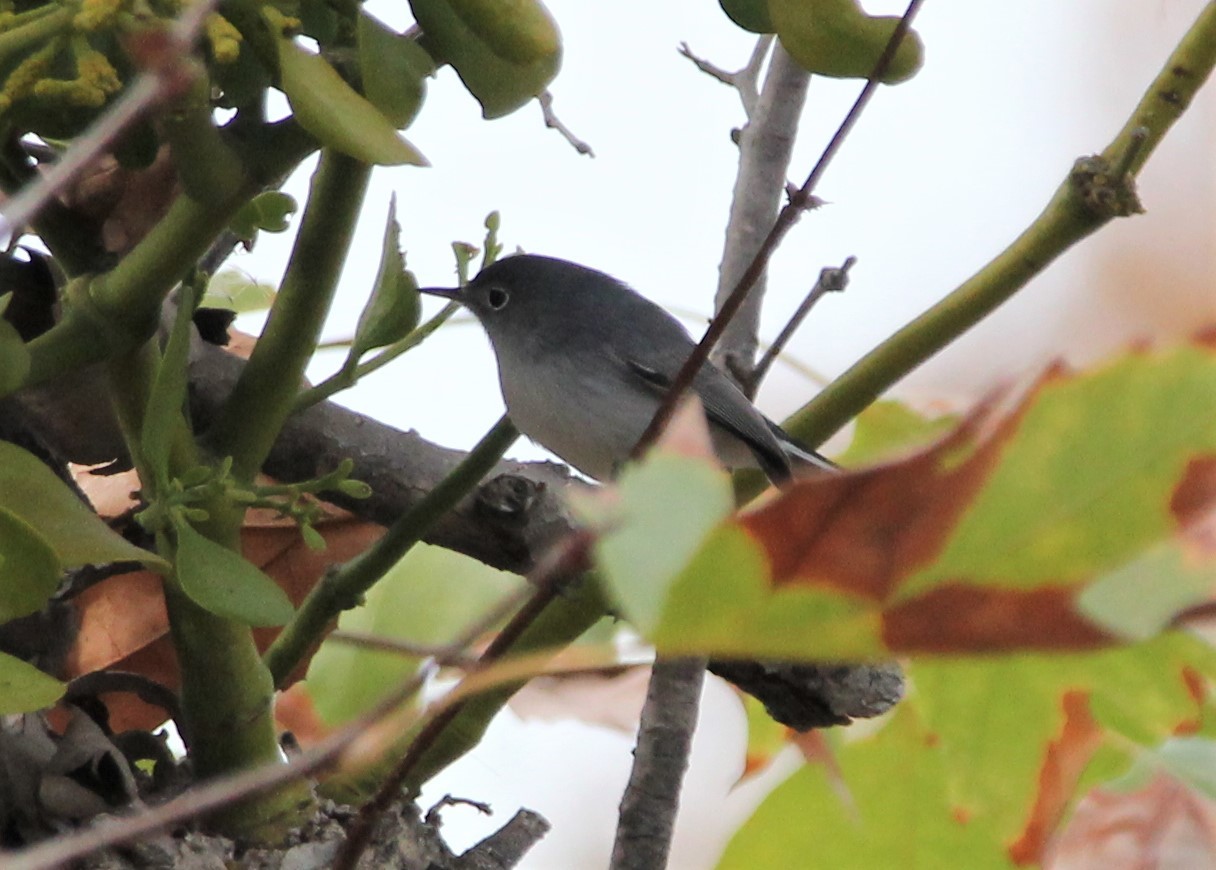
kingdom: Animalia
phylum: Chordata
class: Aves
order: Passeriformes
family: Polioptilidae
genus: Polioptila
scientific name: Polioptila caerulea
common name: Blue-gray gnatcatcher
